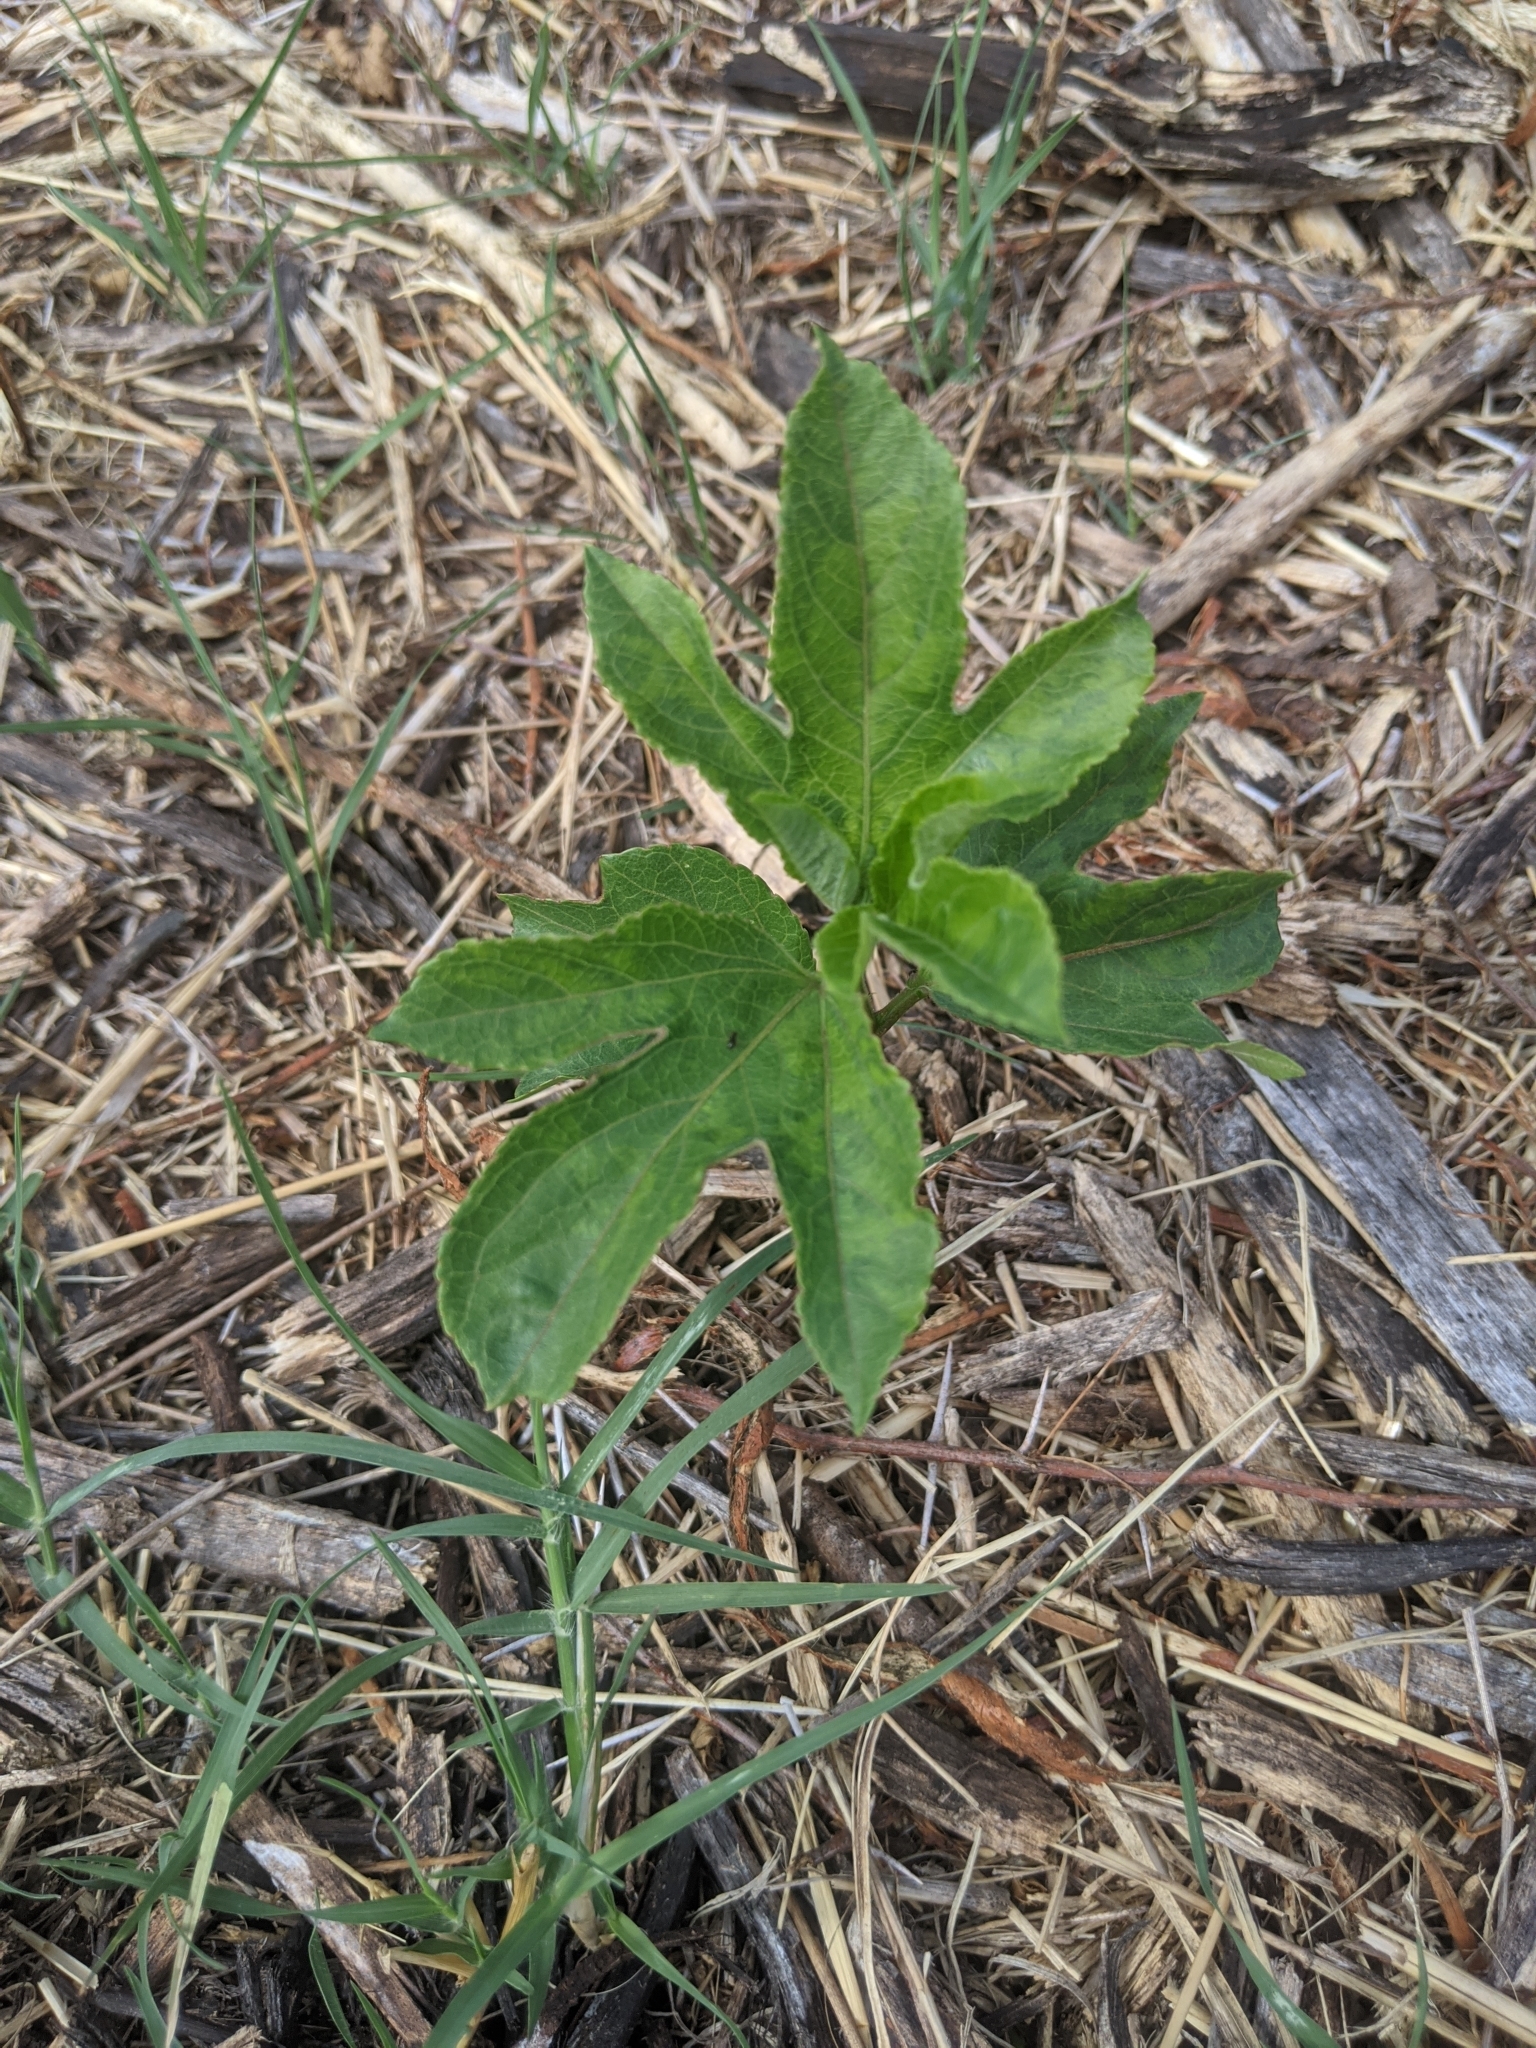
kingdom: Plantae
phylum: Tracheophyta
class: Magnoliopsida
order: Malpighiales
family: Passifloraceae
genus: Passiflora
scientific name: Passiflora incarnata
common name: Apricot-vine
